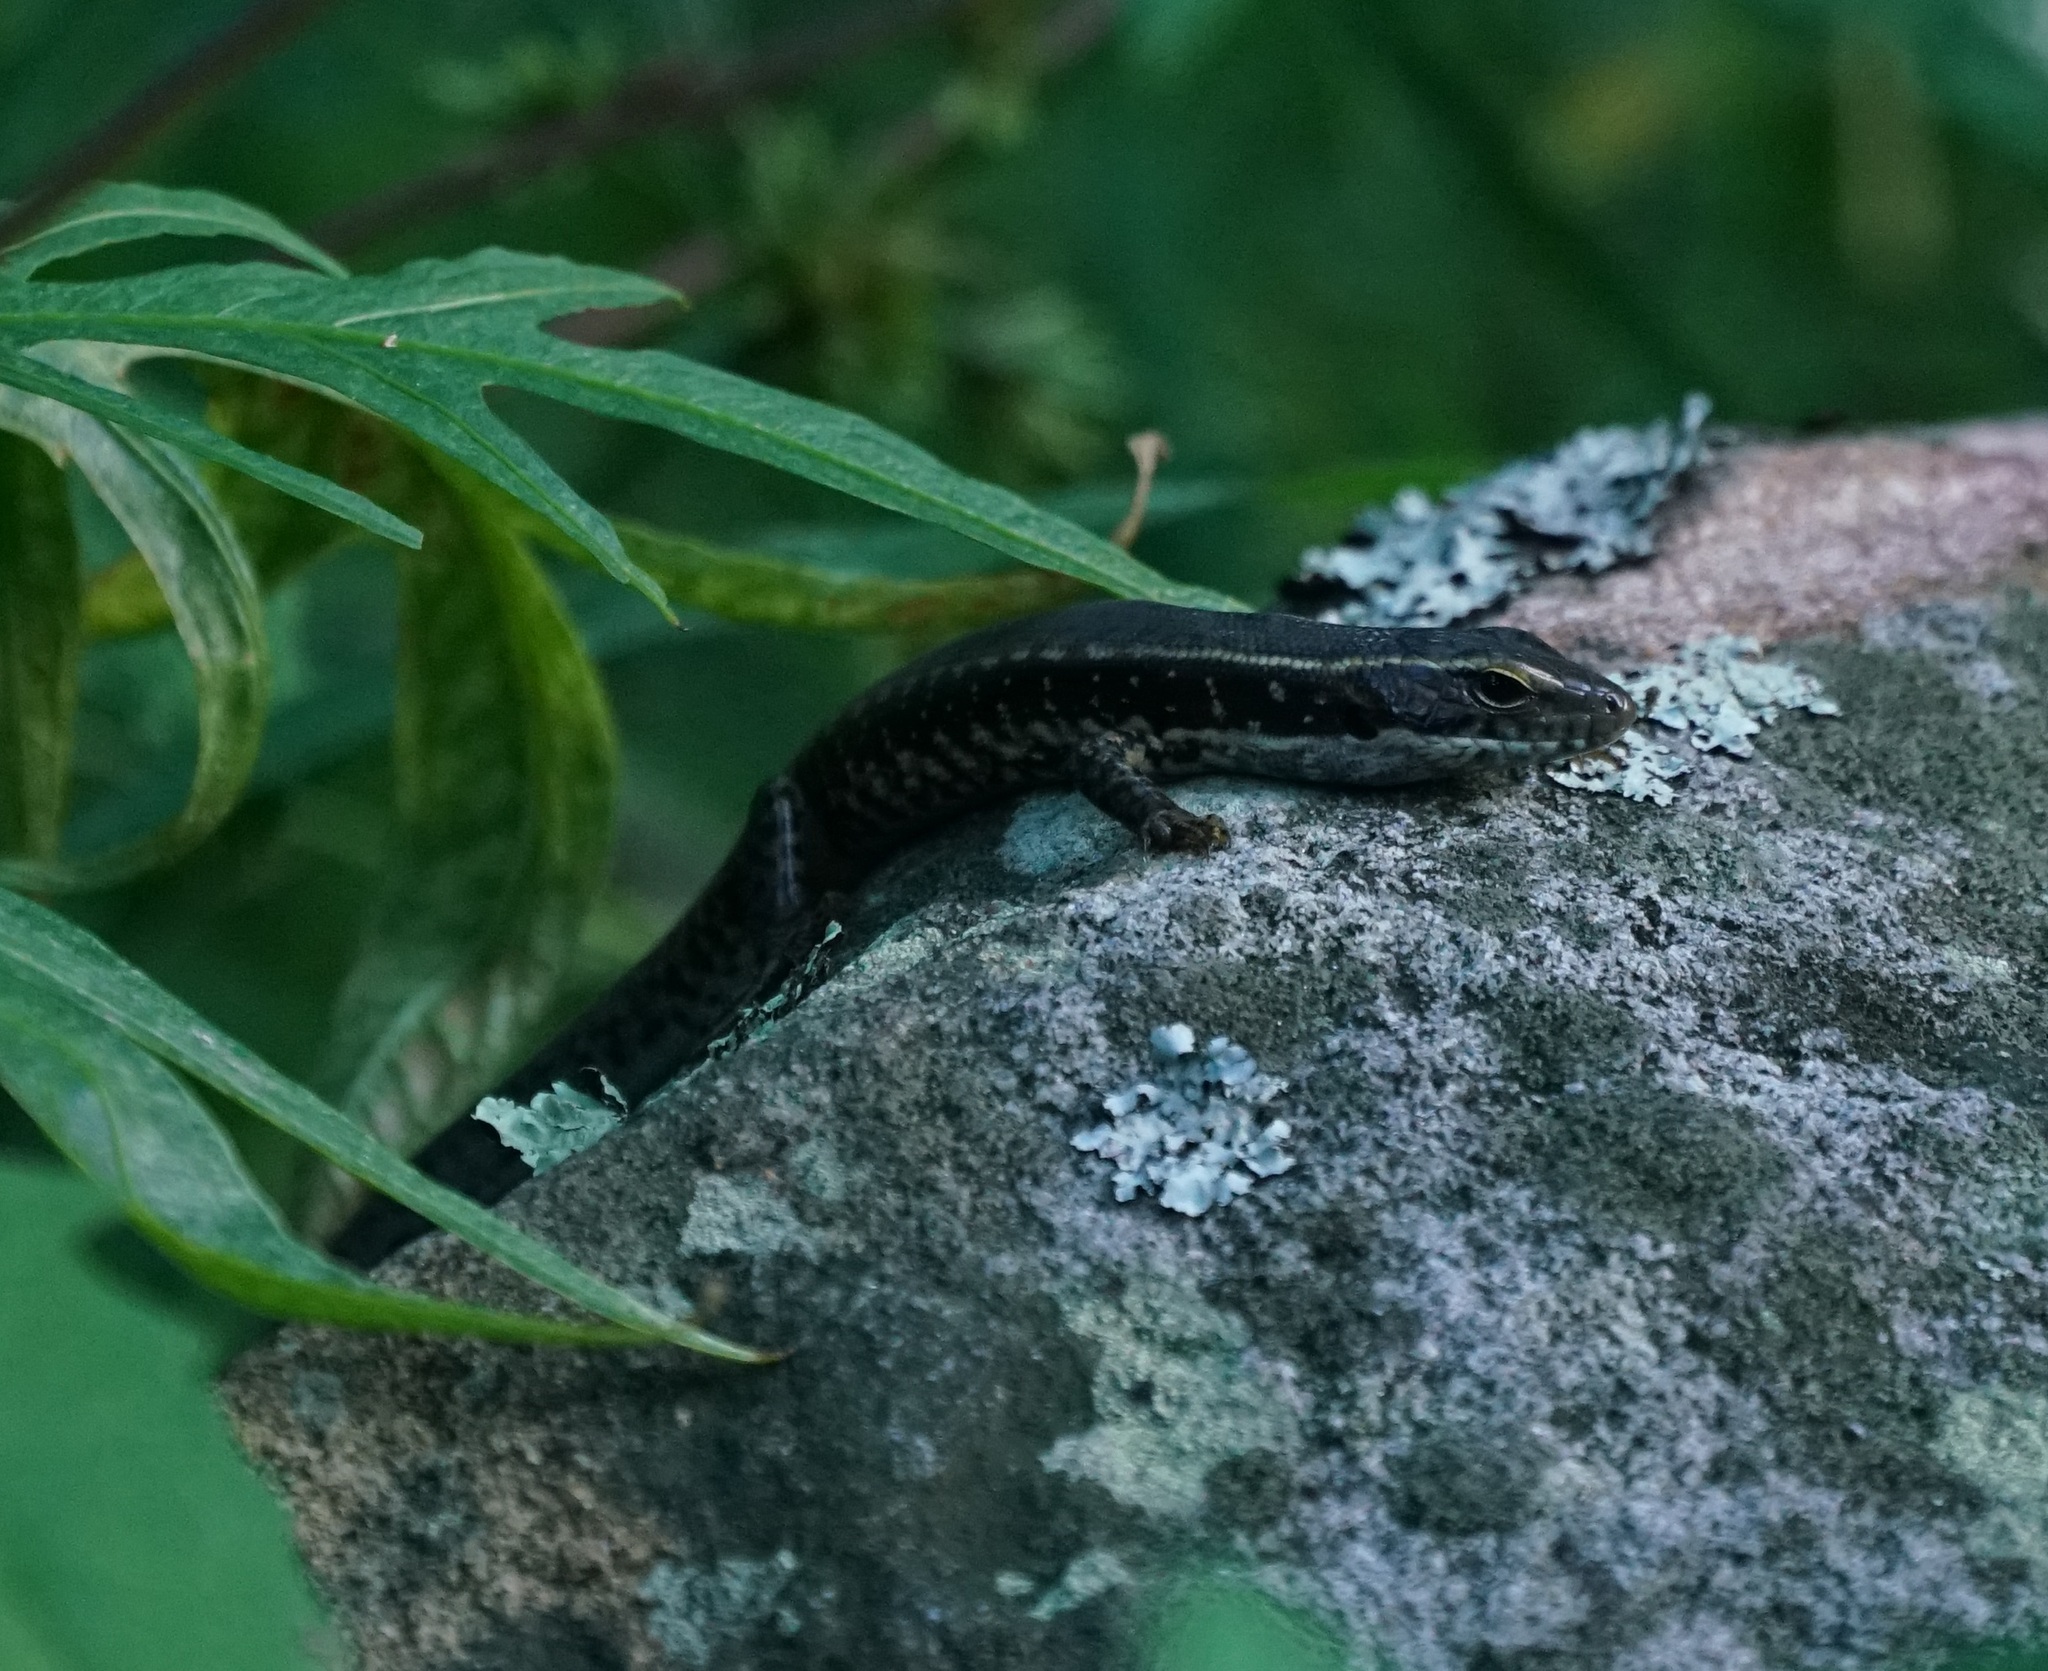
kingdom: Animalia
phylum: Chordata
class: Squamata
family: Scincidae
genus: Eulamprus
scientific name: Eulamprus quoyii
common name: Eastern water skink
